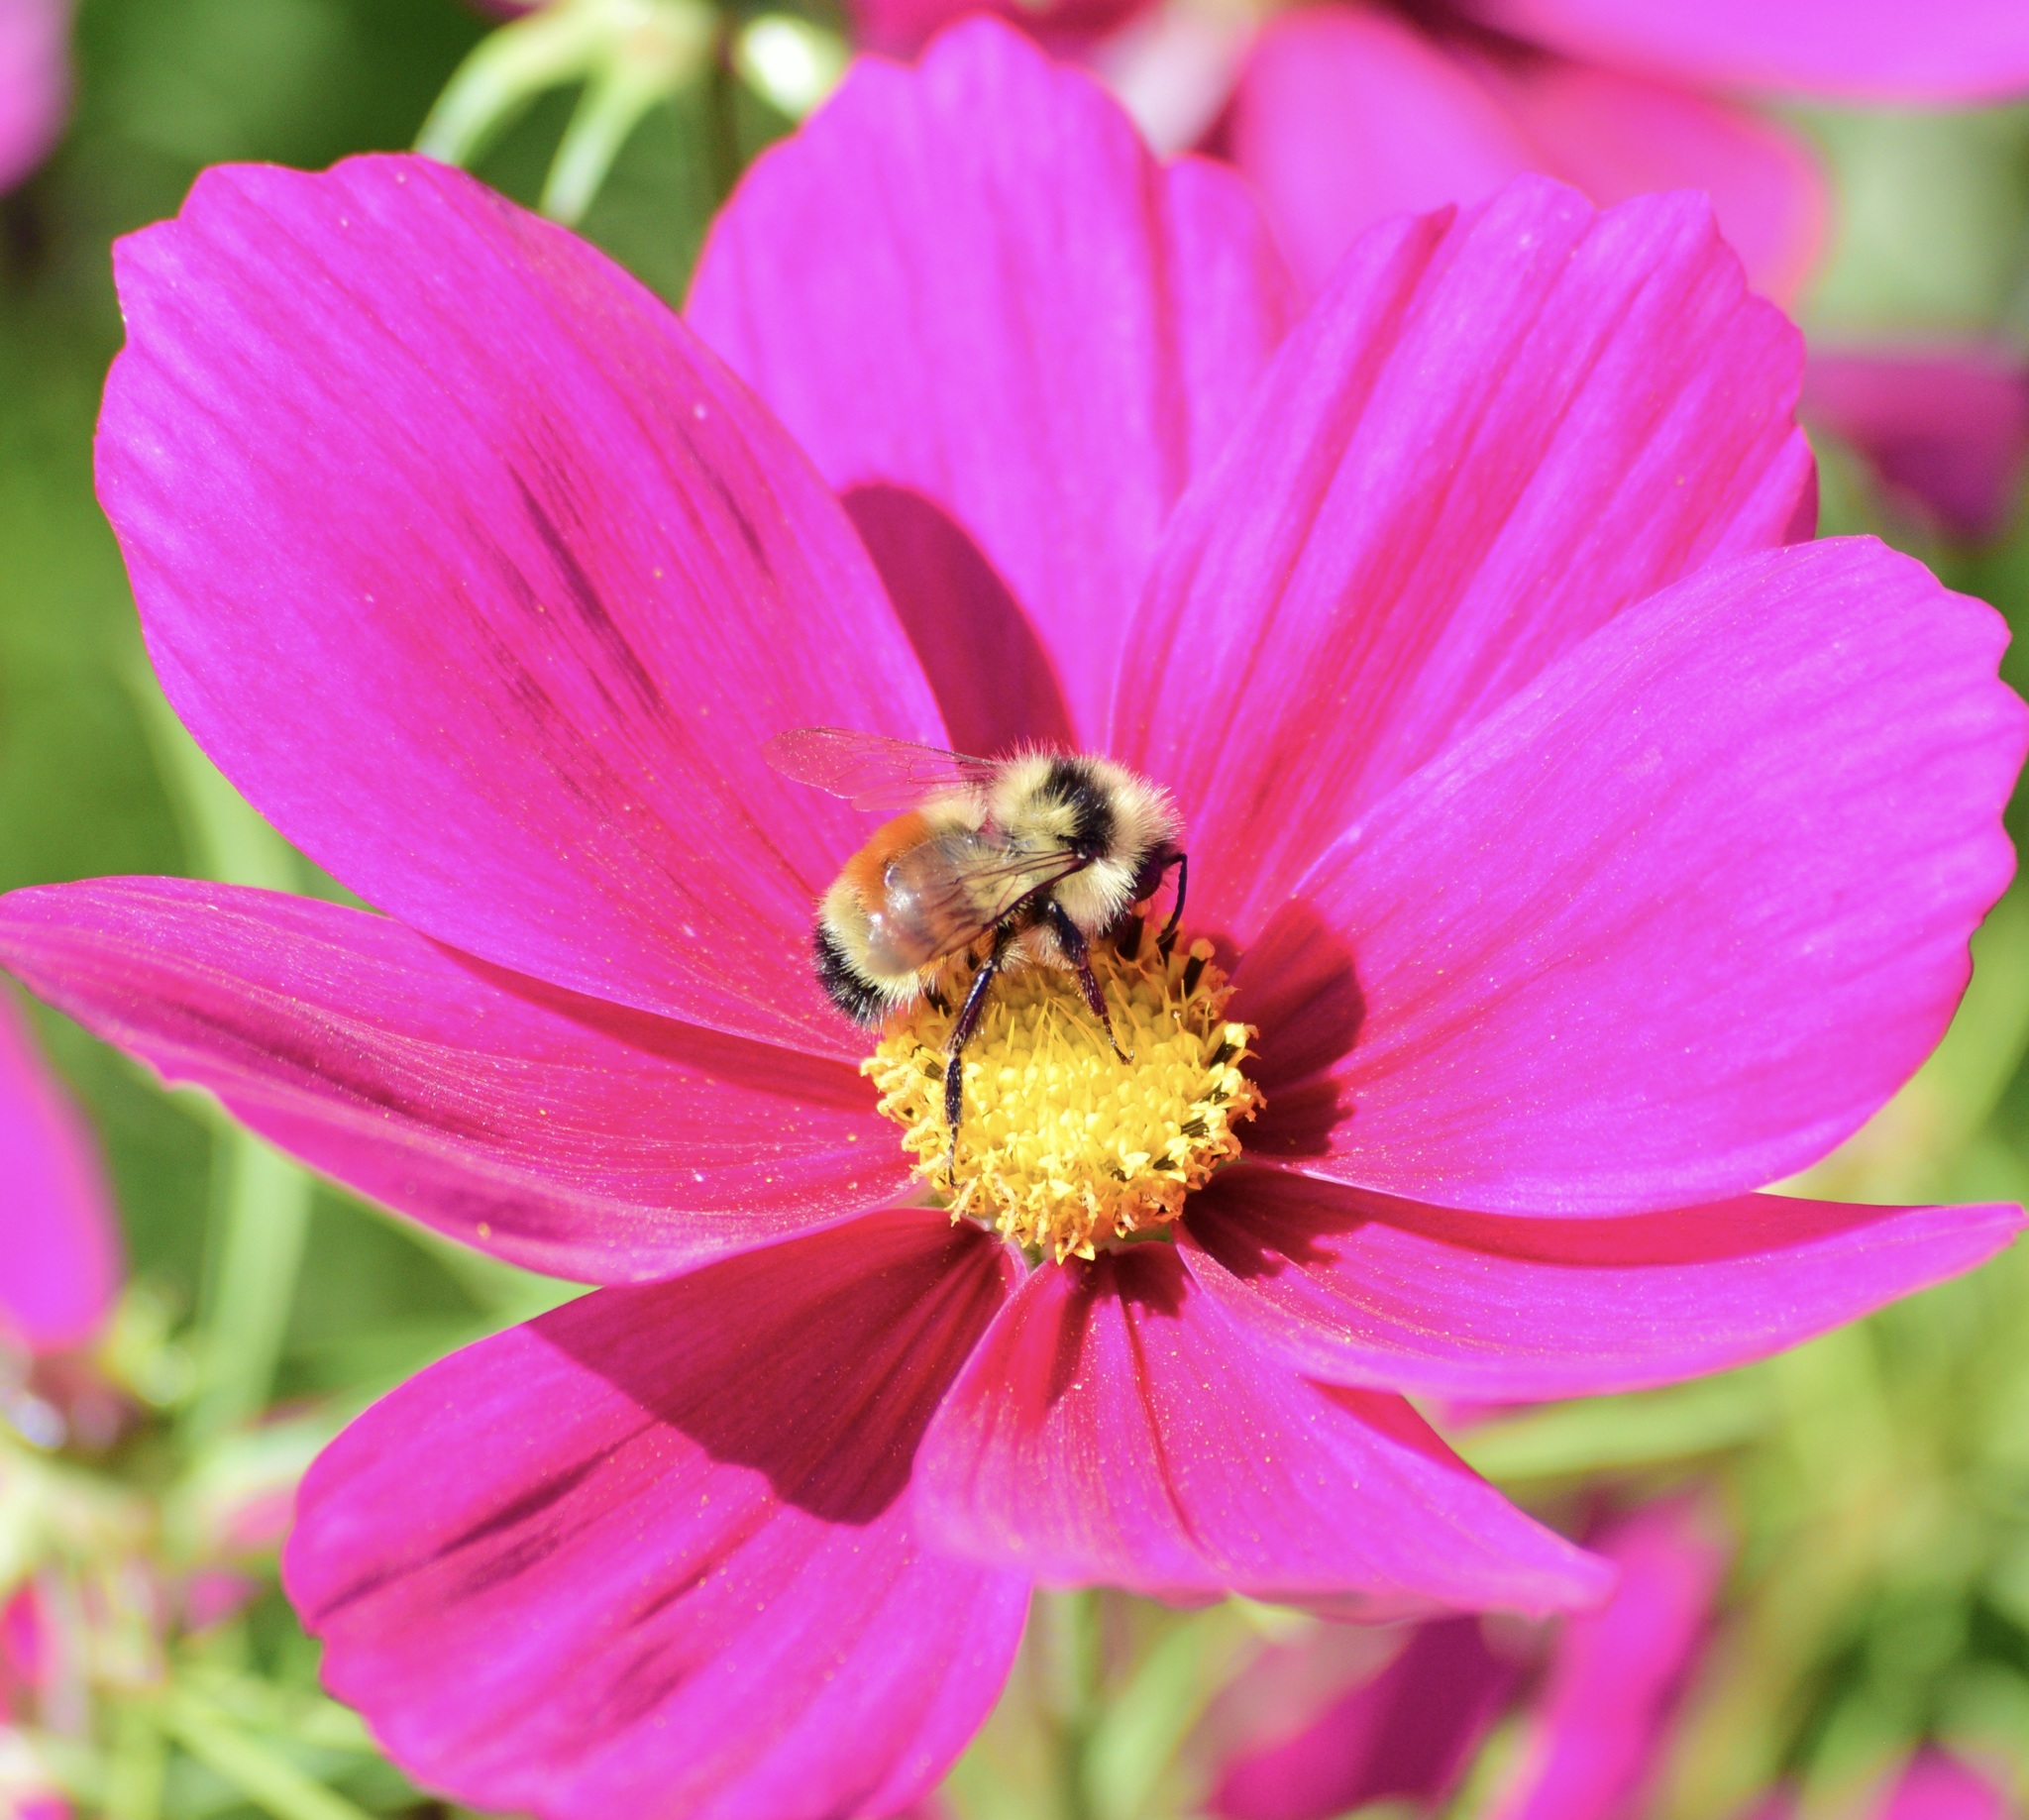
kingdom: Animalia
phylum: Arthropoda
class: Insecta
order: Hymenoptera
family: Apidae
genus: Bombus
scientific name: Bombus ternarius
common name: Tri-colored bumble bee
